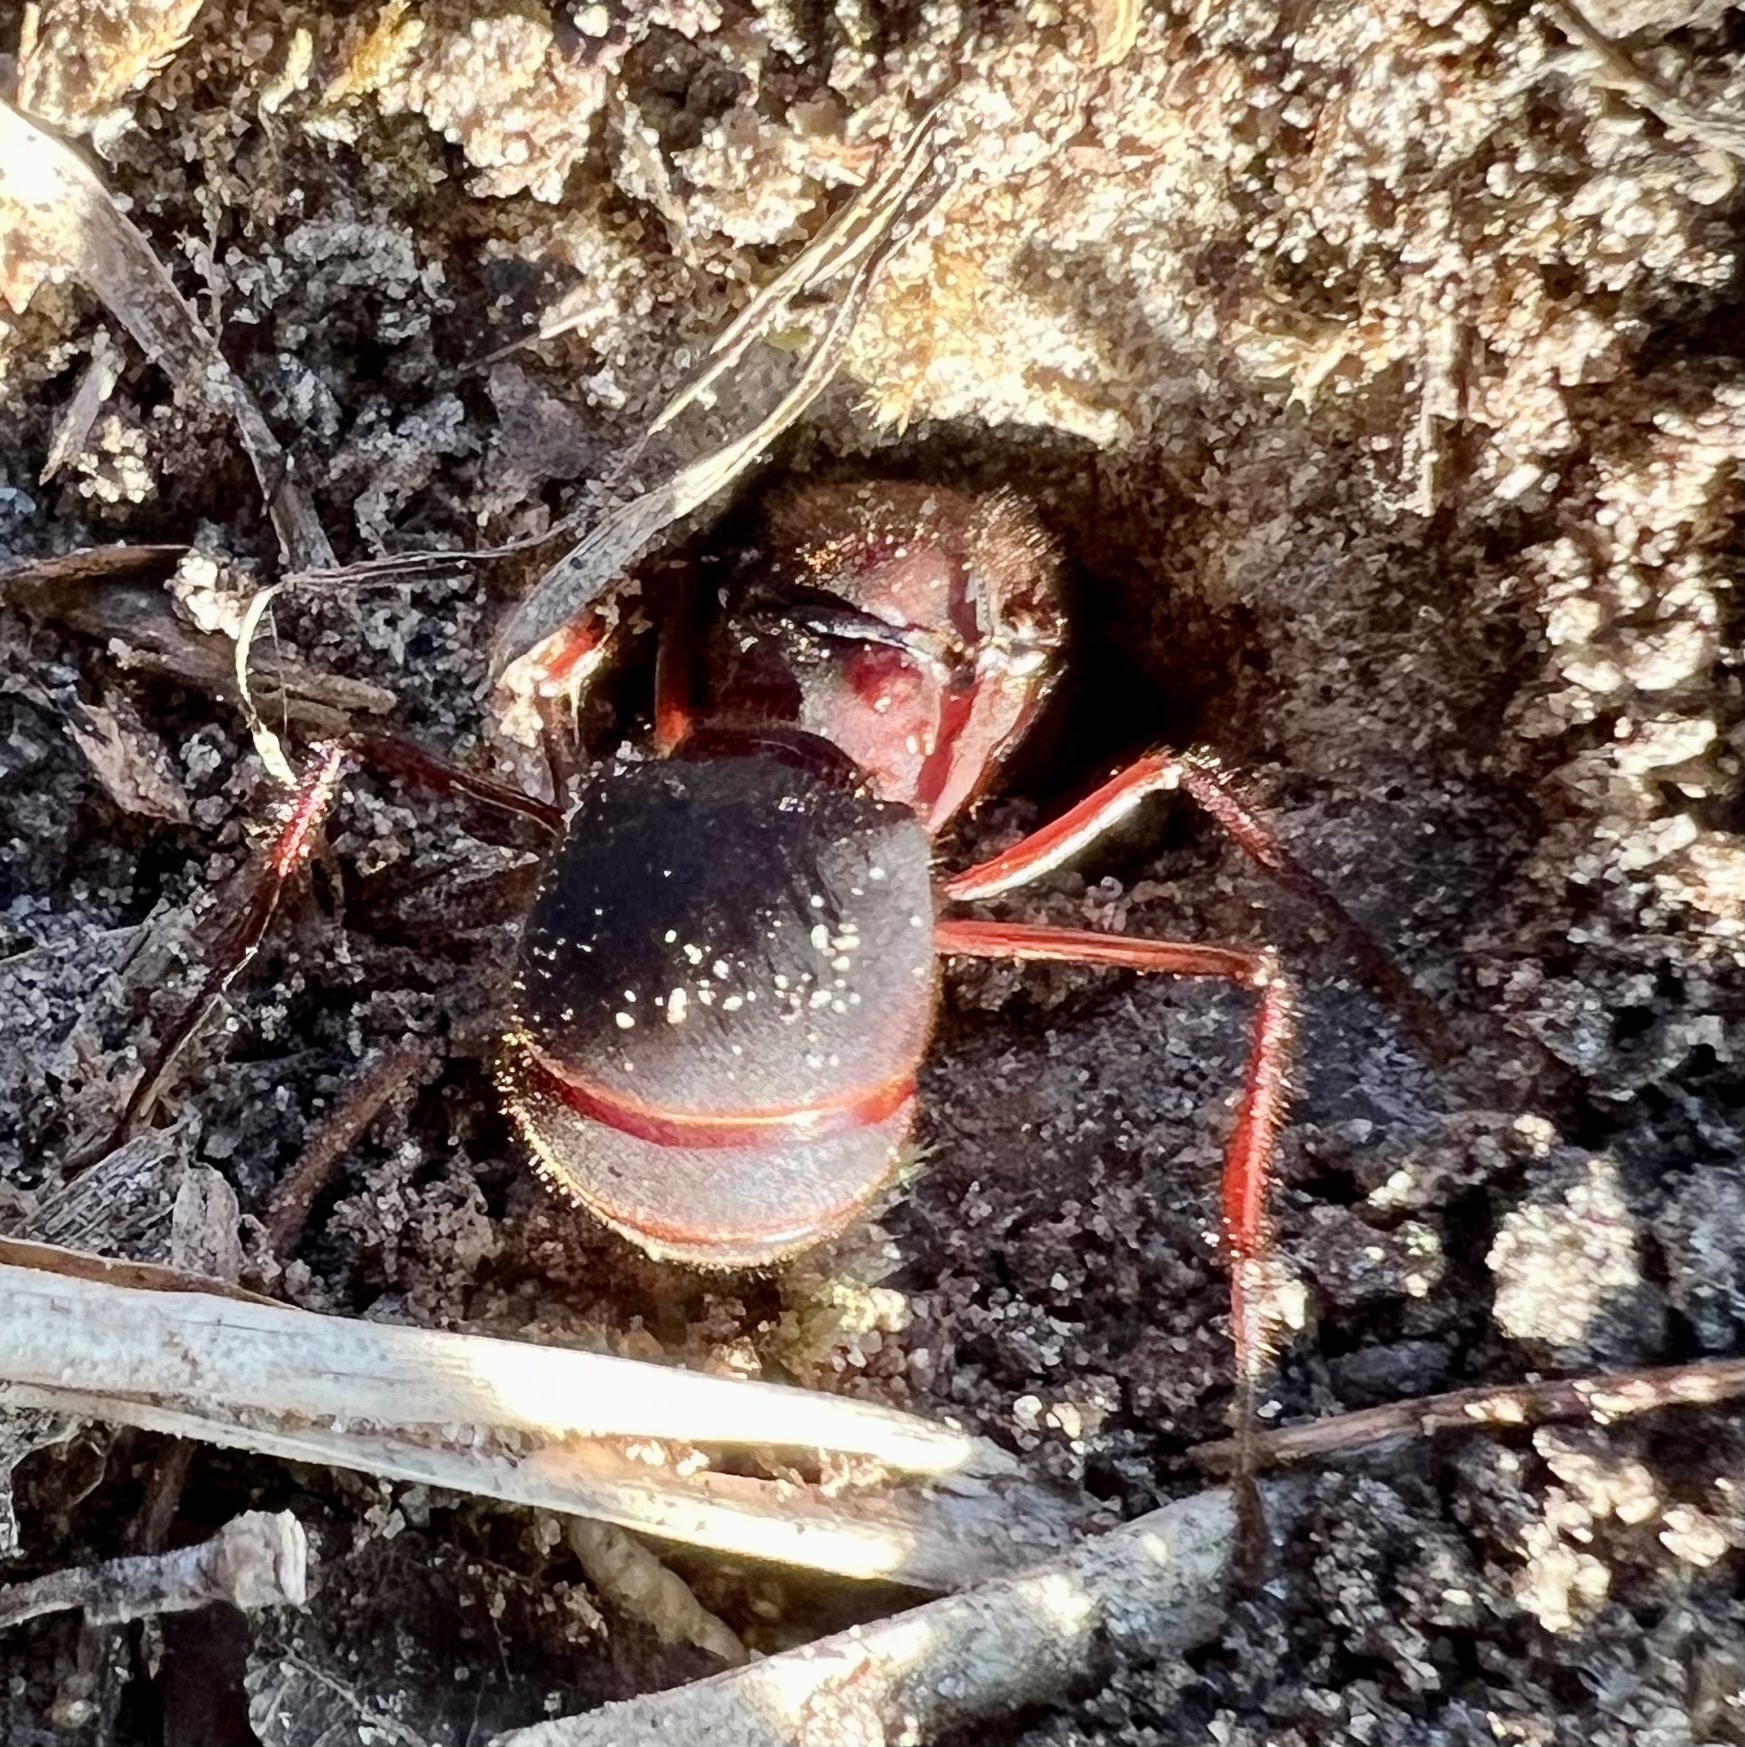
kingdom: Animalia
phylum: Arthropoda
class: Insecta
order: Hymenoptera
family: Formicidae
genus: Atta
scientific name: Atta texana
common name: Texas leafcutting ant
